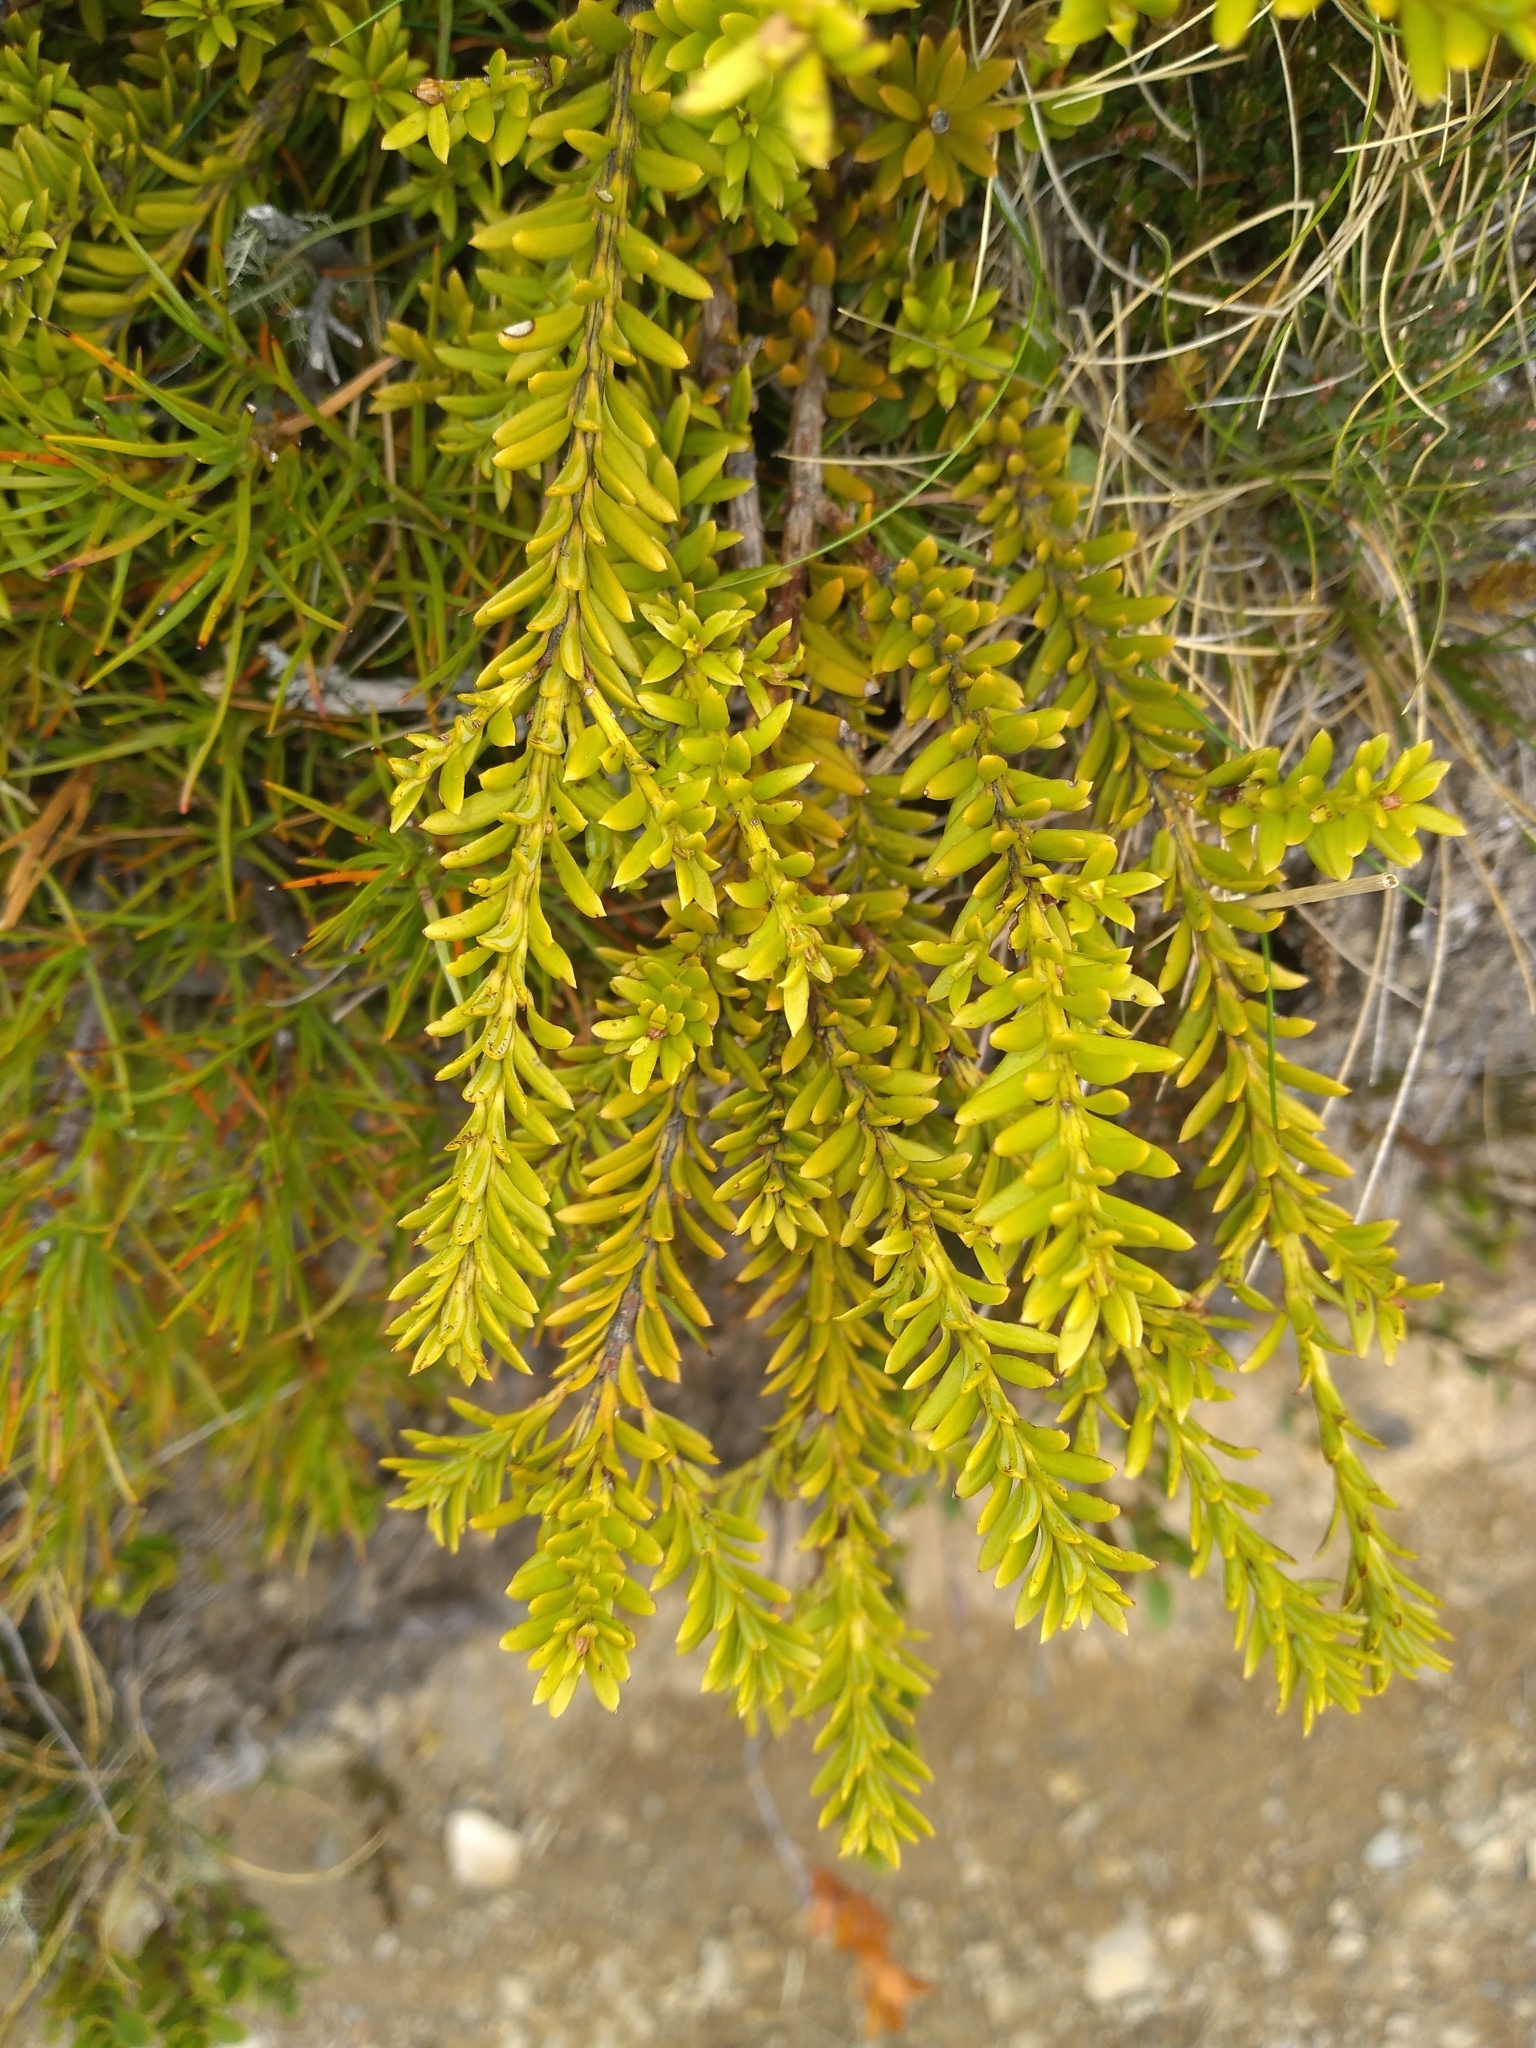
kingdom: Plantae
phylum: Tracheophyta
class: Pinopsida
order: Pinales
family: Podocarpaceae
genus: Podocarpus
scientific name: Podocarpus nivalis
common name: Alpine totara
